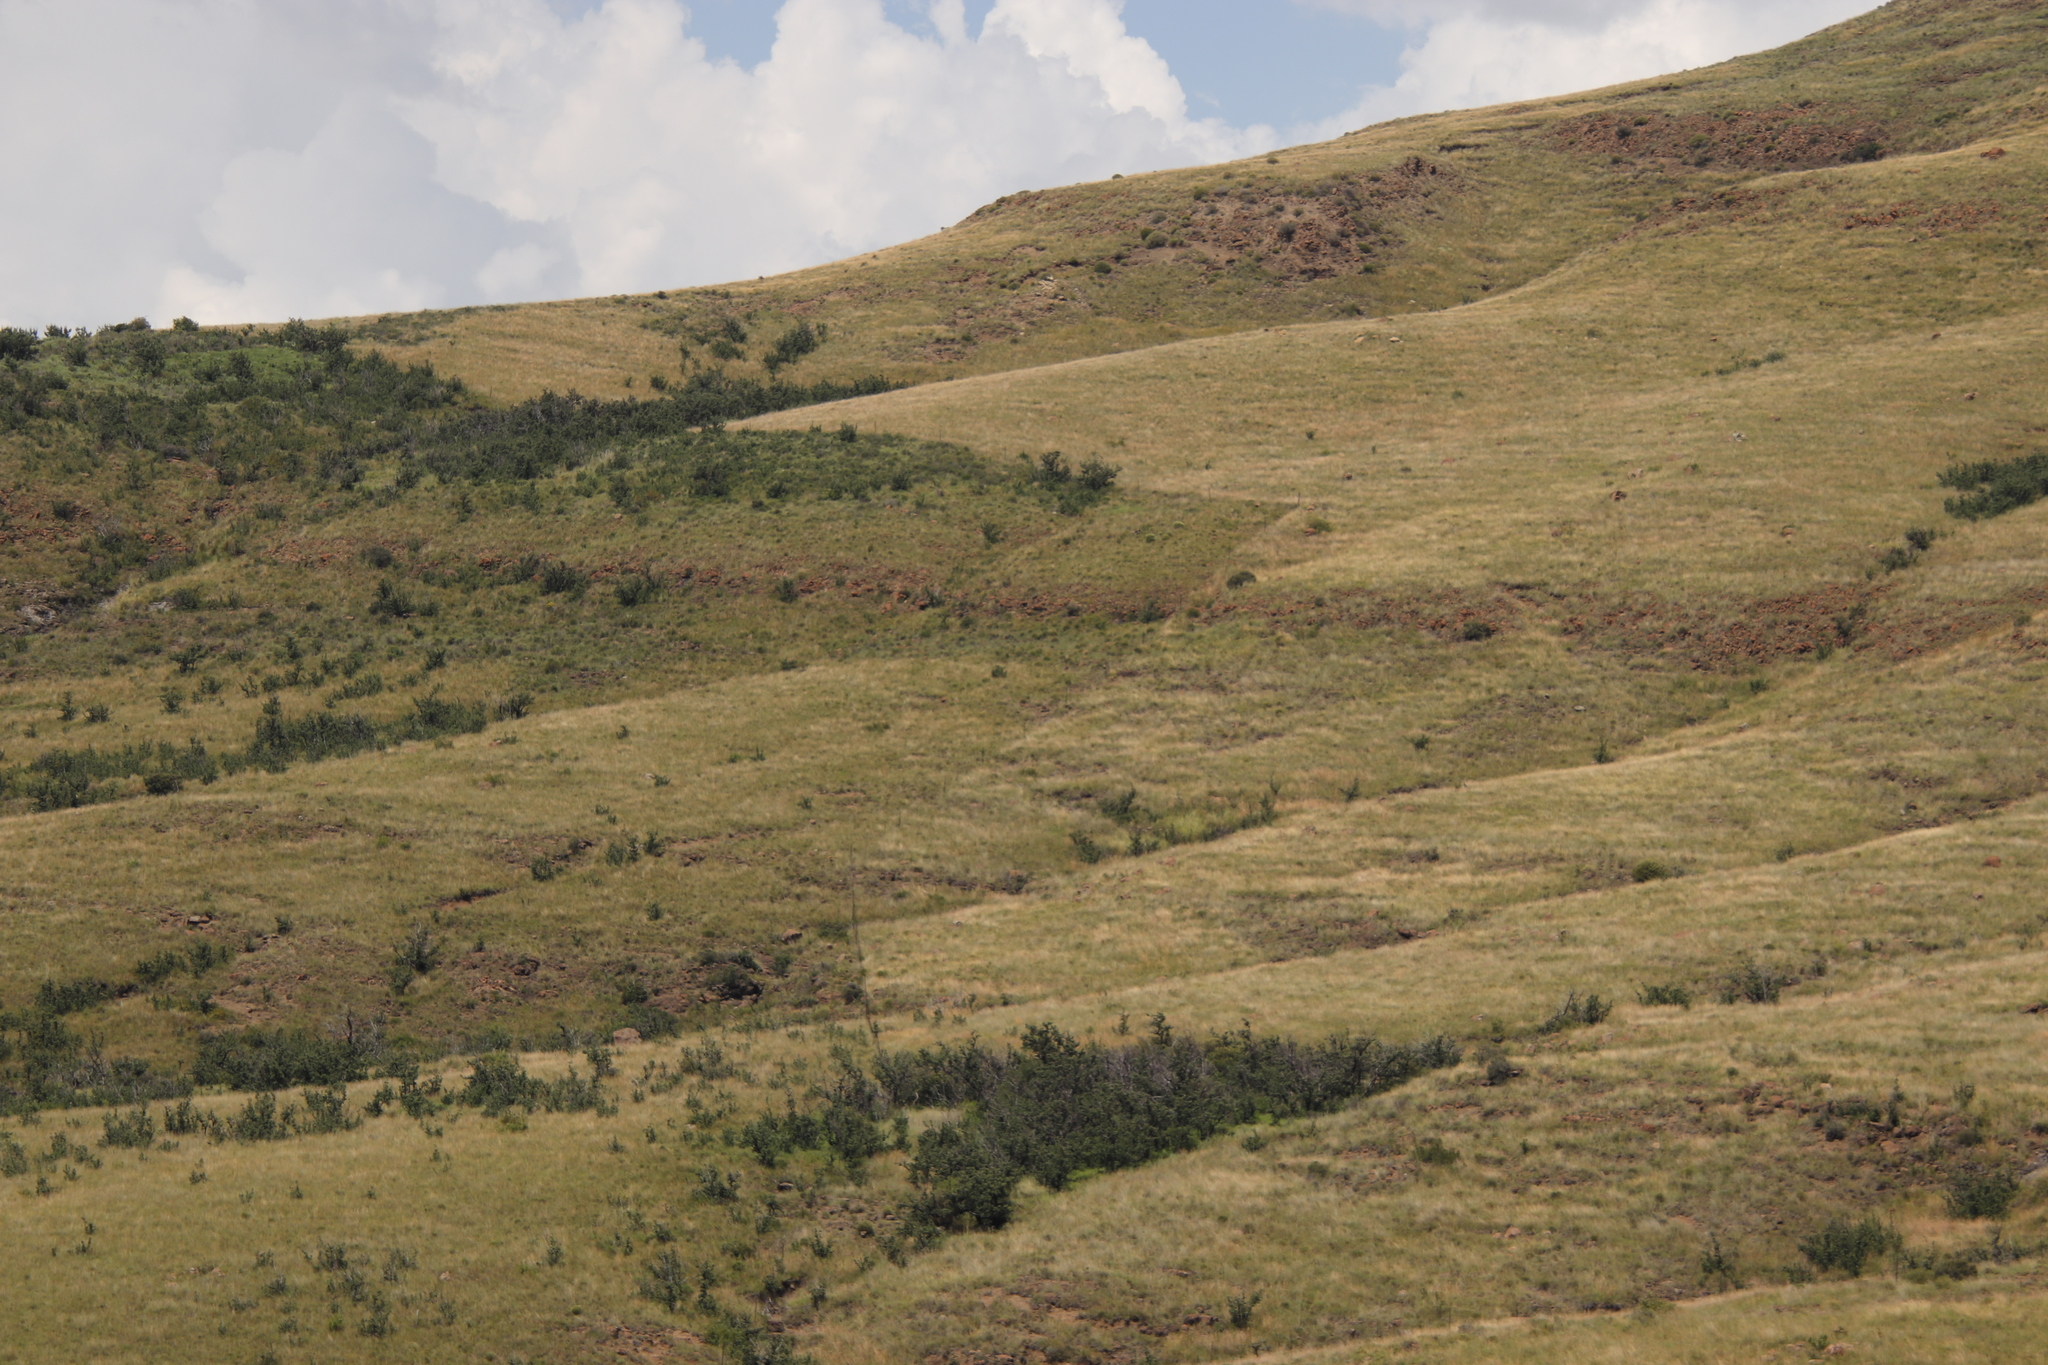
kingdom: Plantae
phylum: Tracheophyta
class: Liliopsida
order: Poales
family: Poaceae
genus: Themeda
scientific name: Themeda triandra
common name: Kangaroo grass
